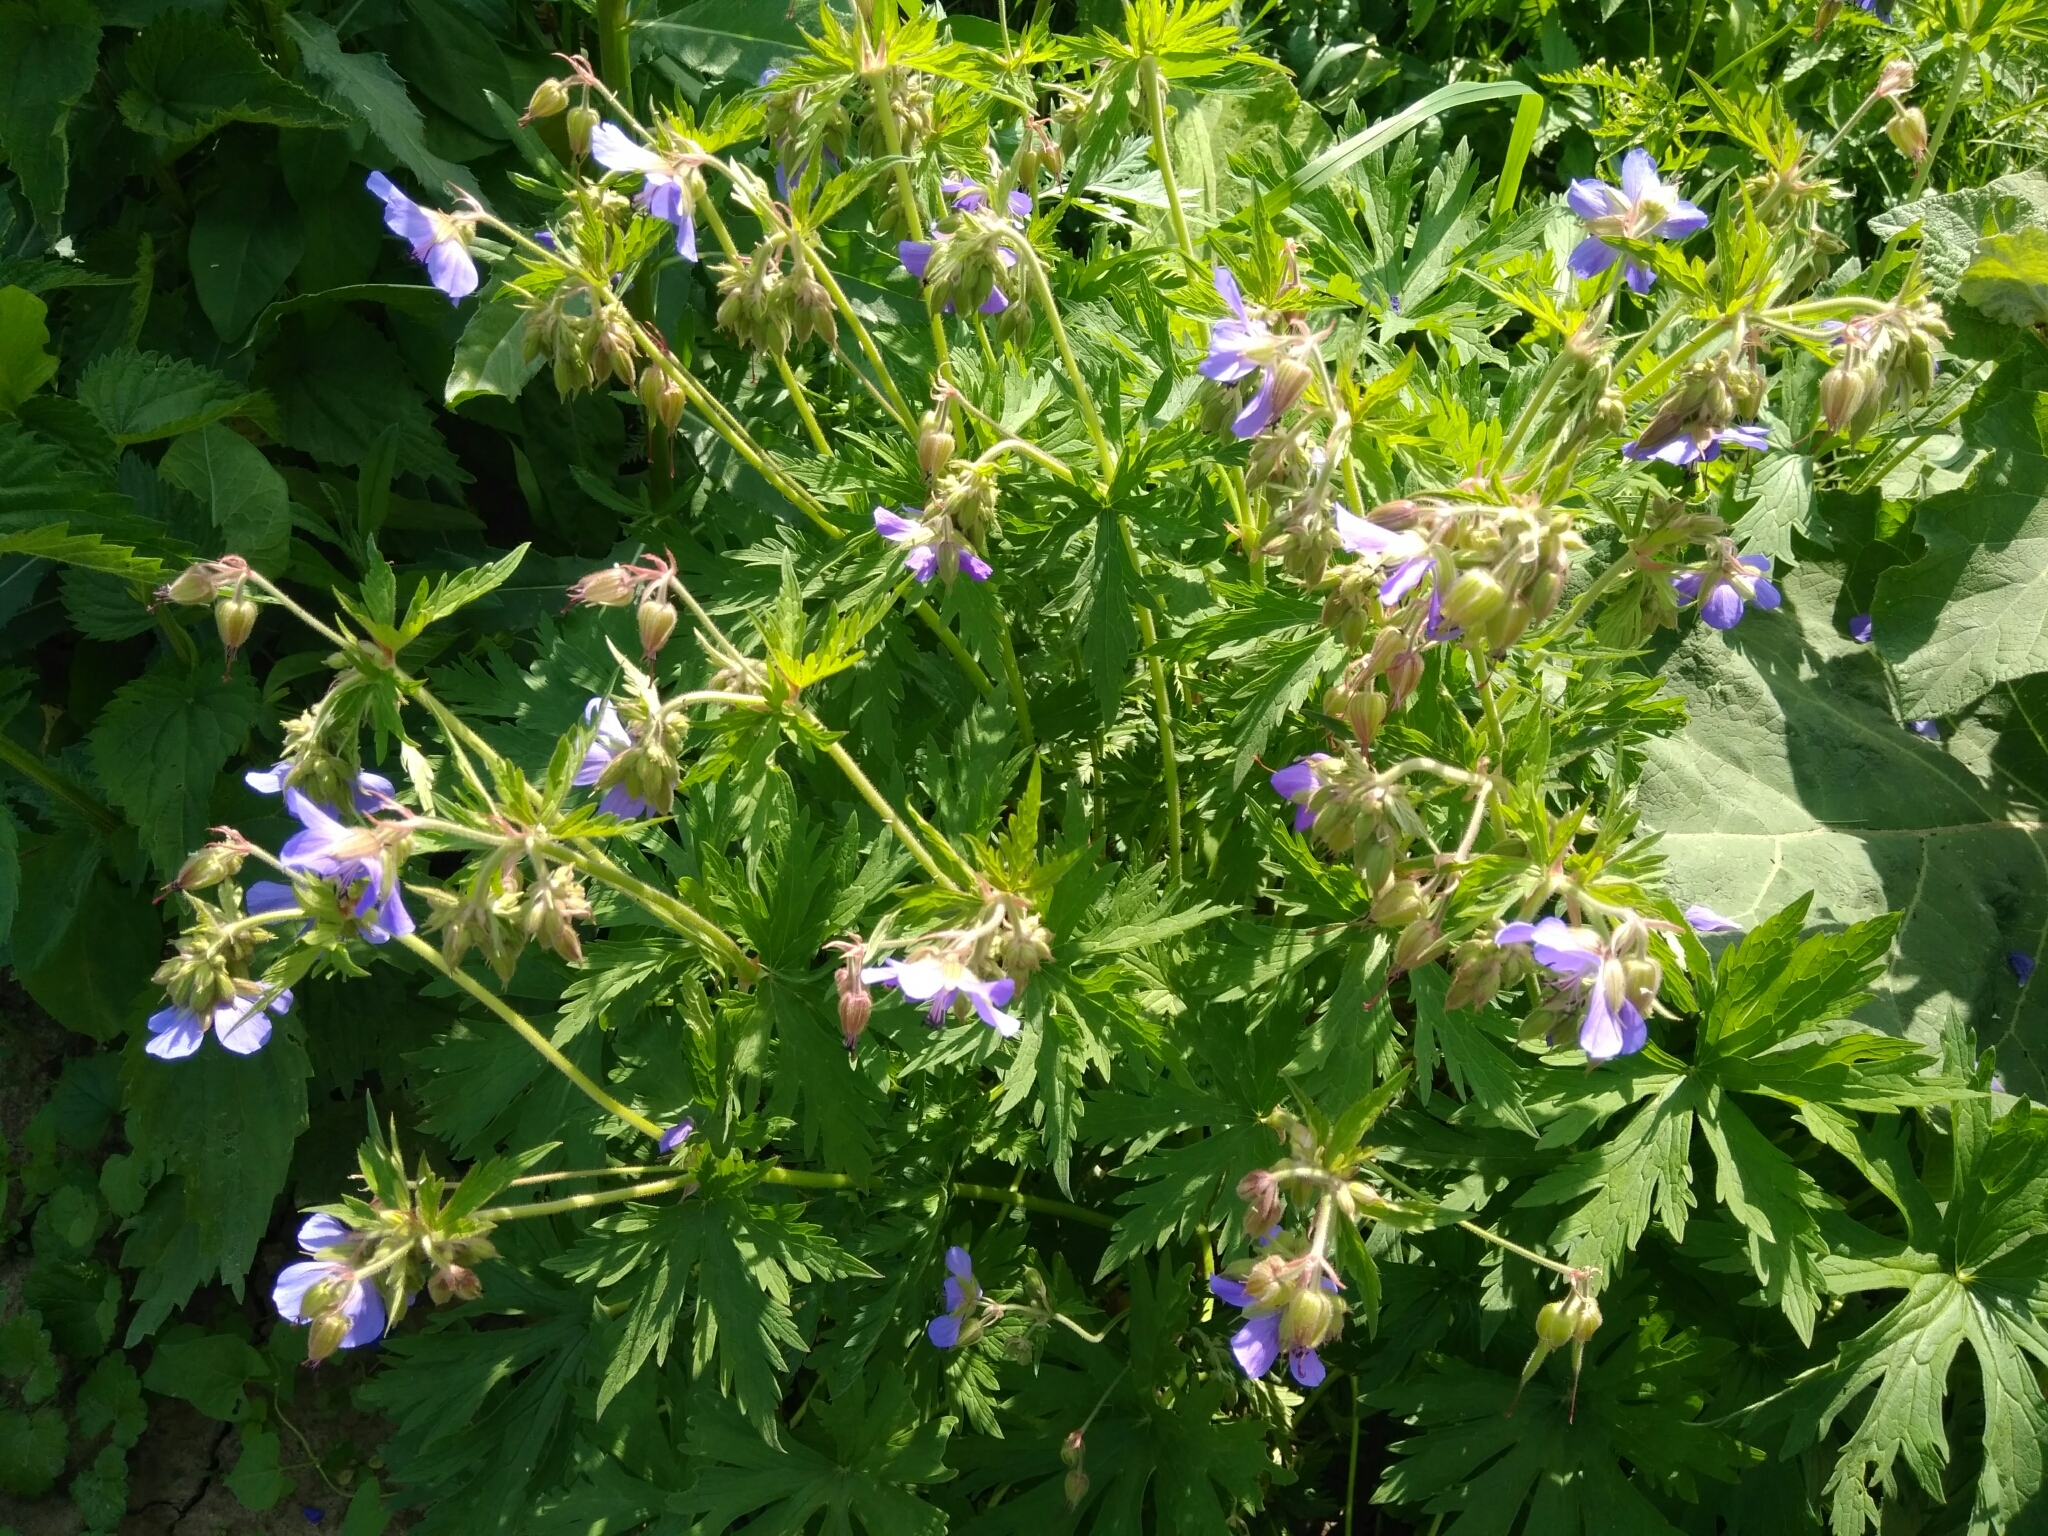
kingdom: Plantae
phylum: Tracheophyta
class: Magnoliopsida
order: Geraniales
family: Geraniaceae
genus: Geranium
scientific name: Geranium pratense
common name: Meadow crane's-bill
